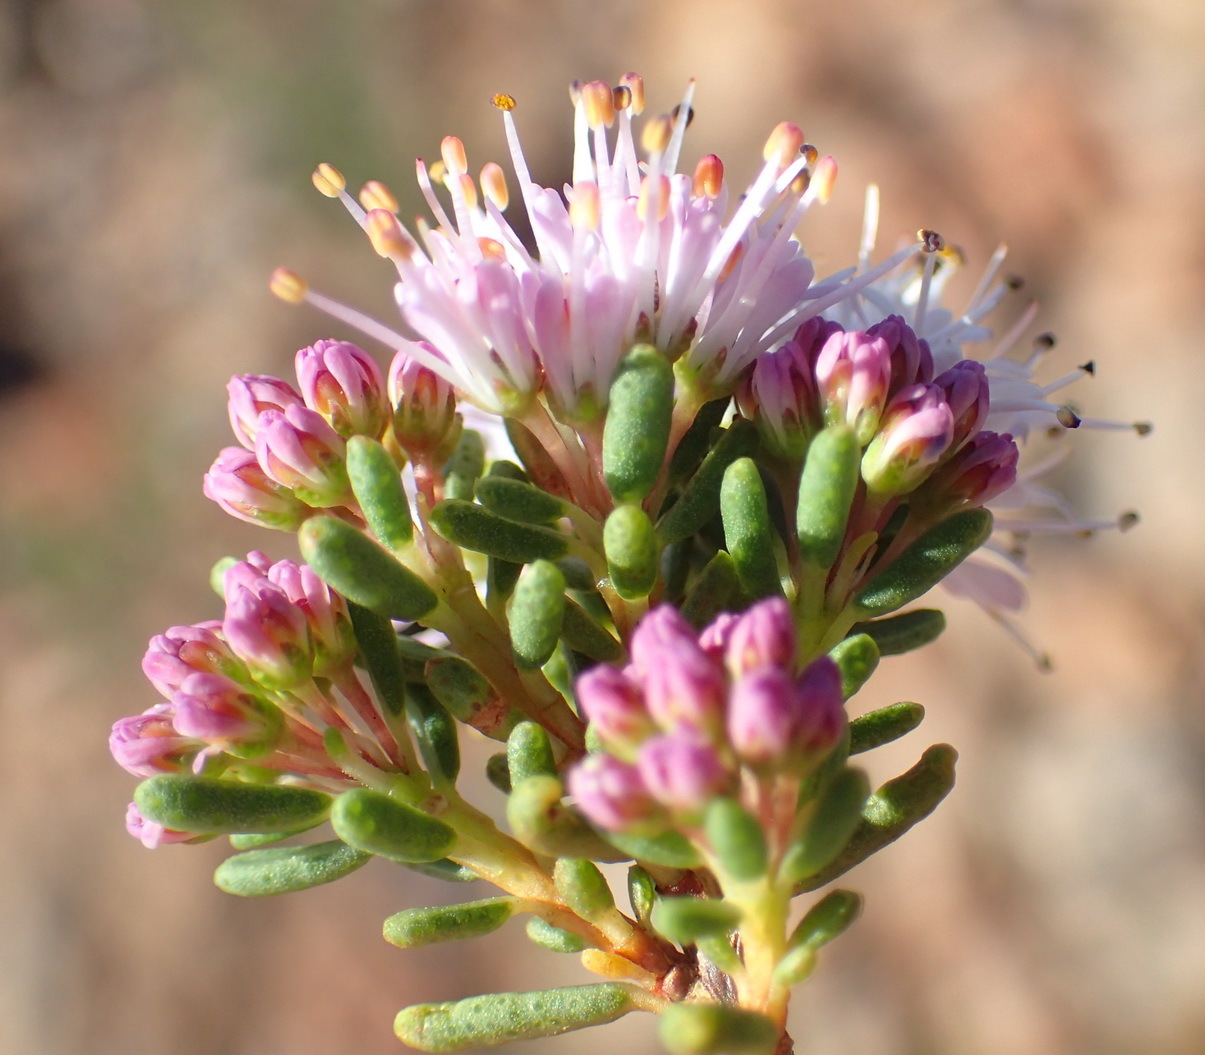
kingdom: Plantae
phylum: Tracheophyta
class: Magnoliopsida
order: Sapindales
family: Rutaceae
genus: Agathosma
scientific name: Agathosma capensis
